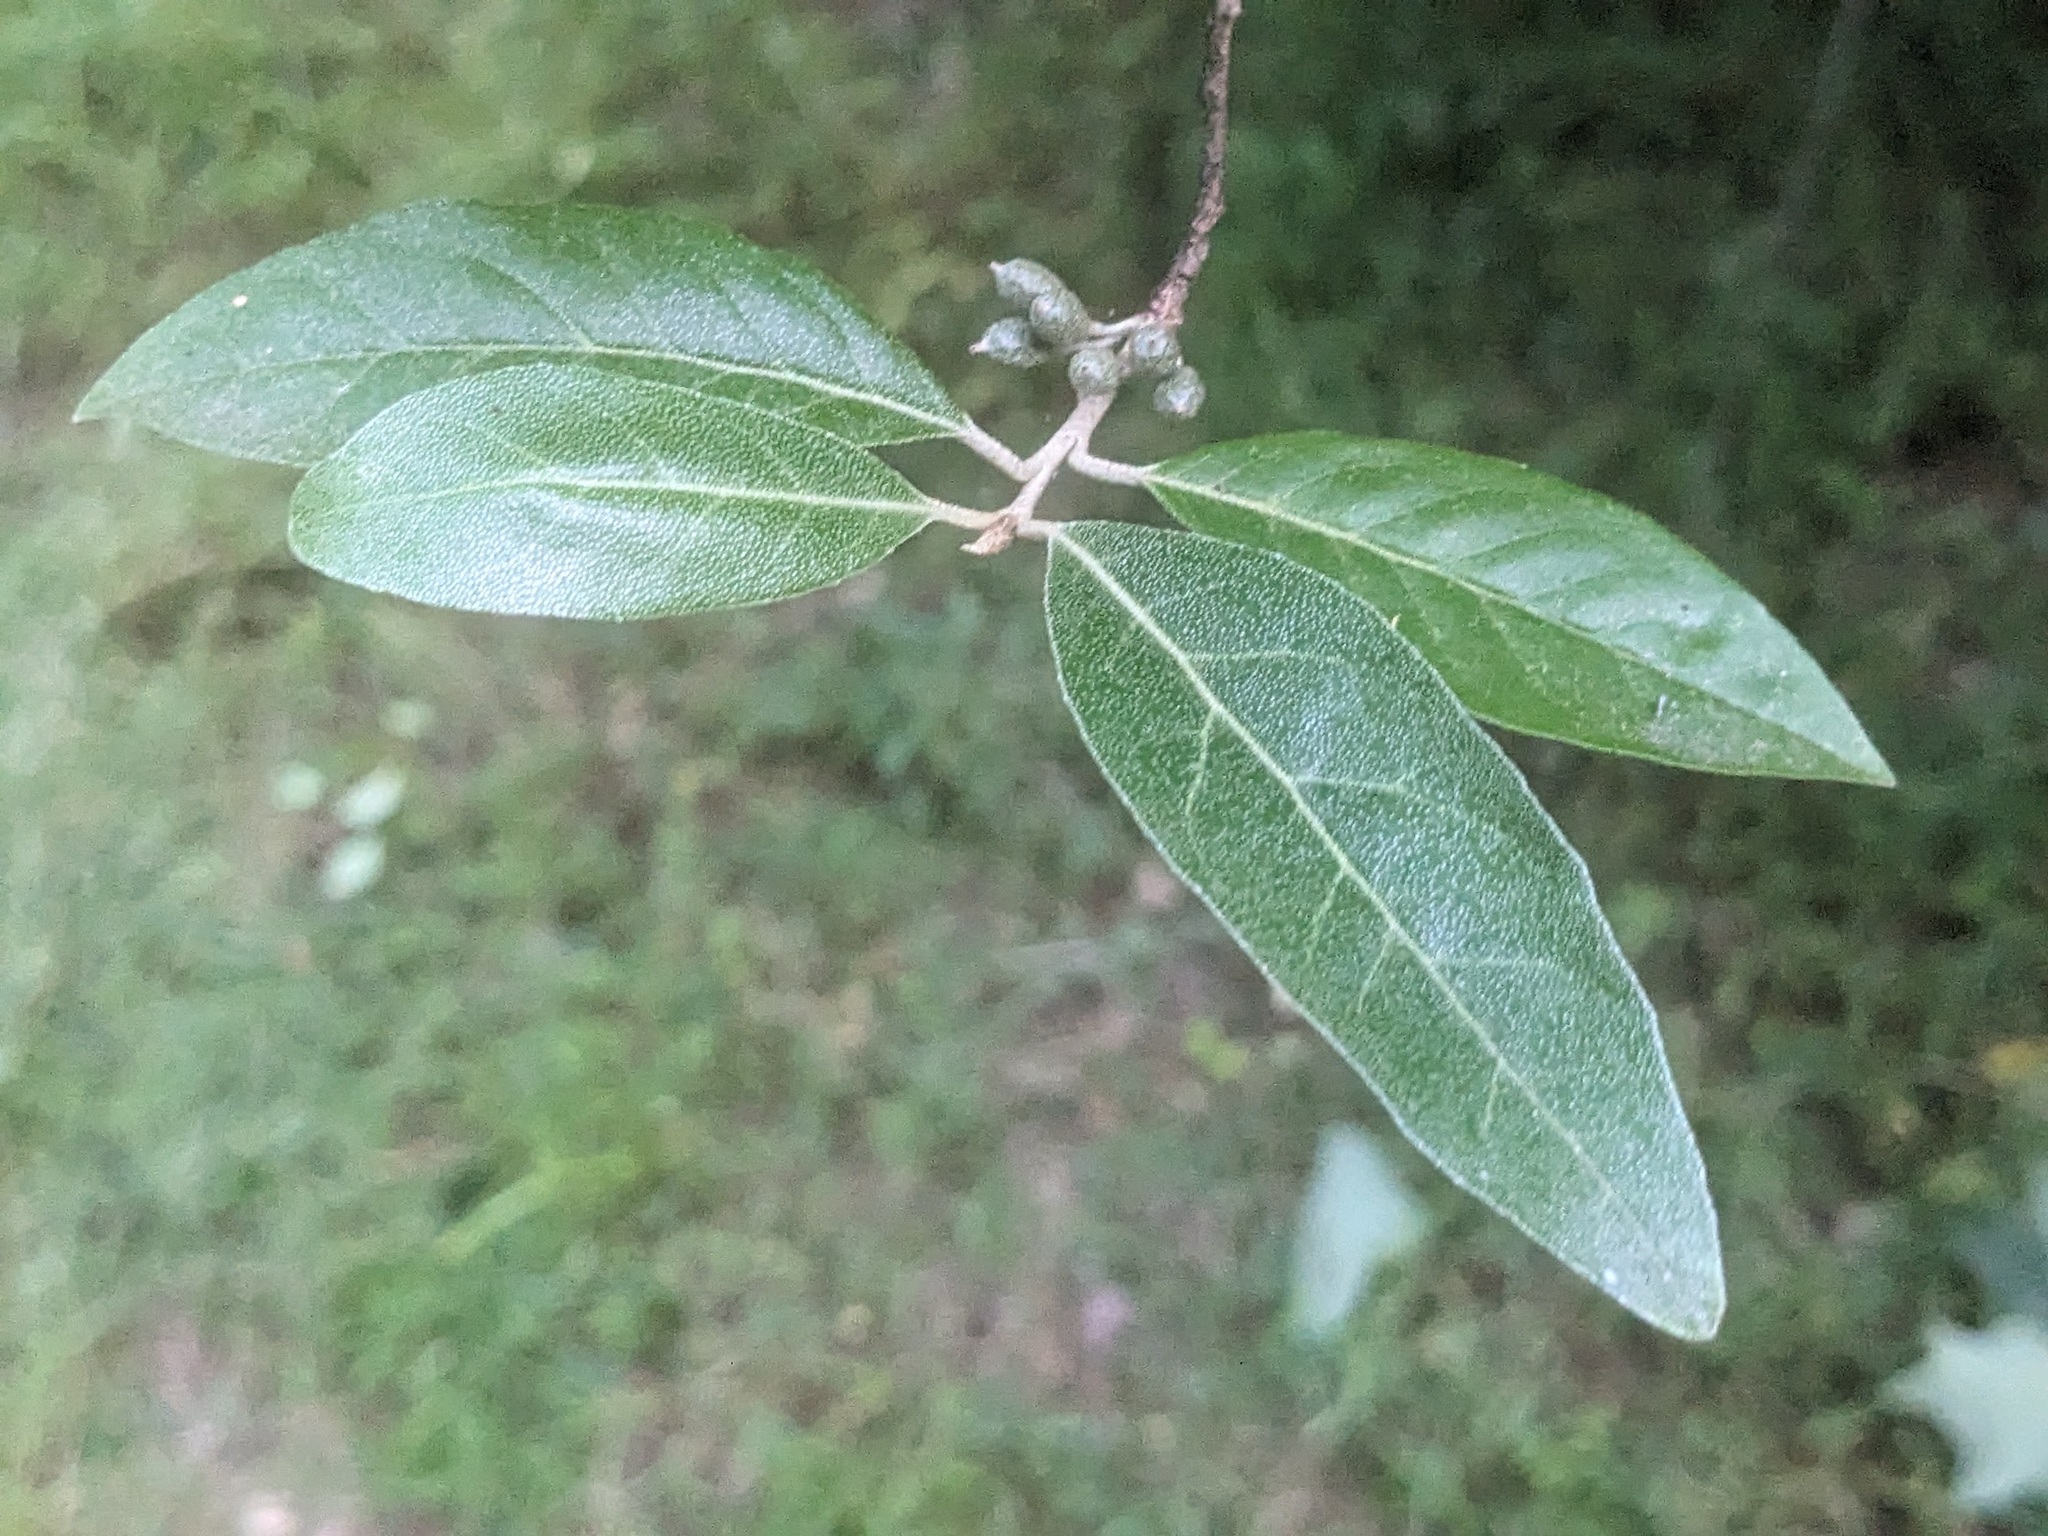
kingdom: Plantae
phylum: Tracheophyta
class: Magnoliopsida
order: Rosales
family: Elaeagnaceae
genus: Elaeagnus
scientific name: Elaeagnus umbellata
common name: Autumn olive
